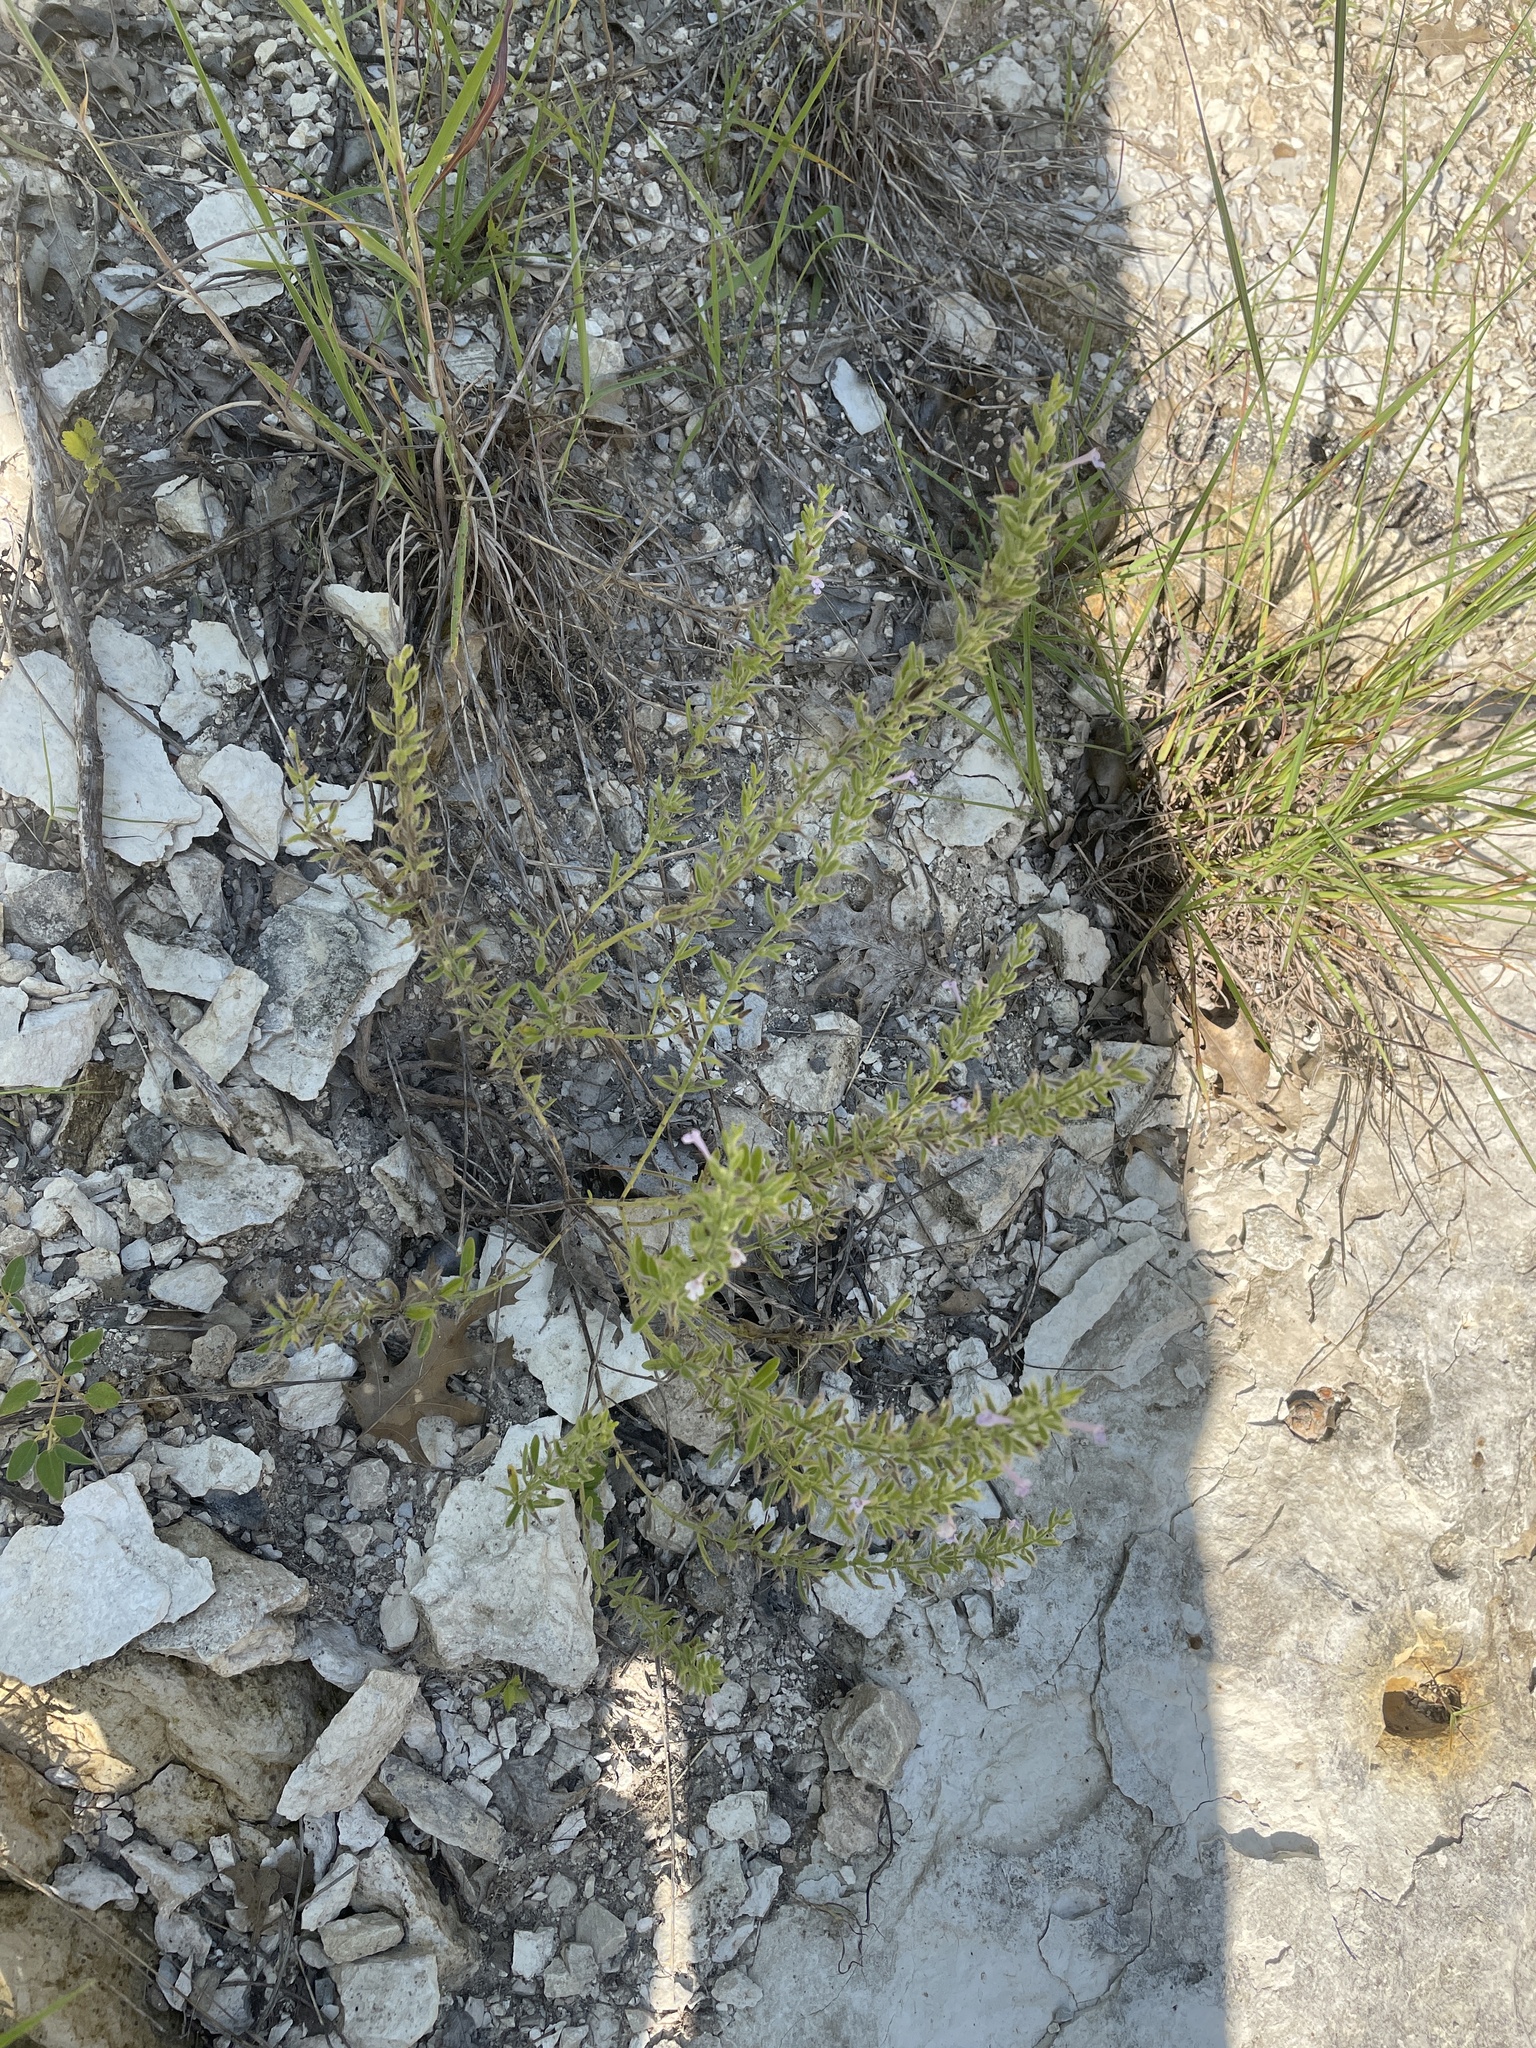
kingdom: Plantae
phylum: Tracheophyta
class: Magnoliopsida
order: Lamiales
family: Lamiaceae
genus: Hedeoma
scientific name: Hedeoma reverchonii
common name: Reverchon's false penny-royal
